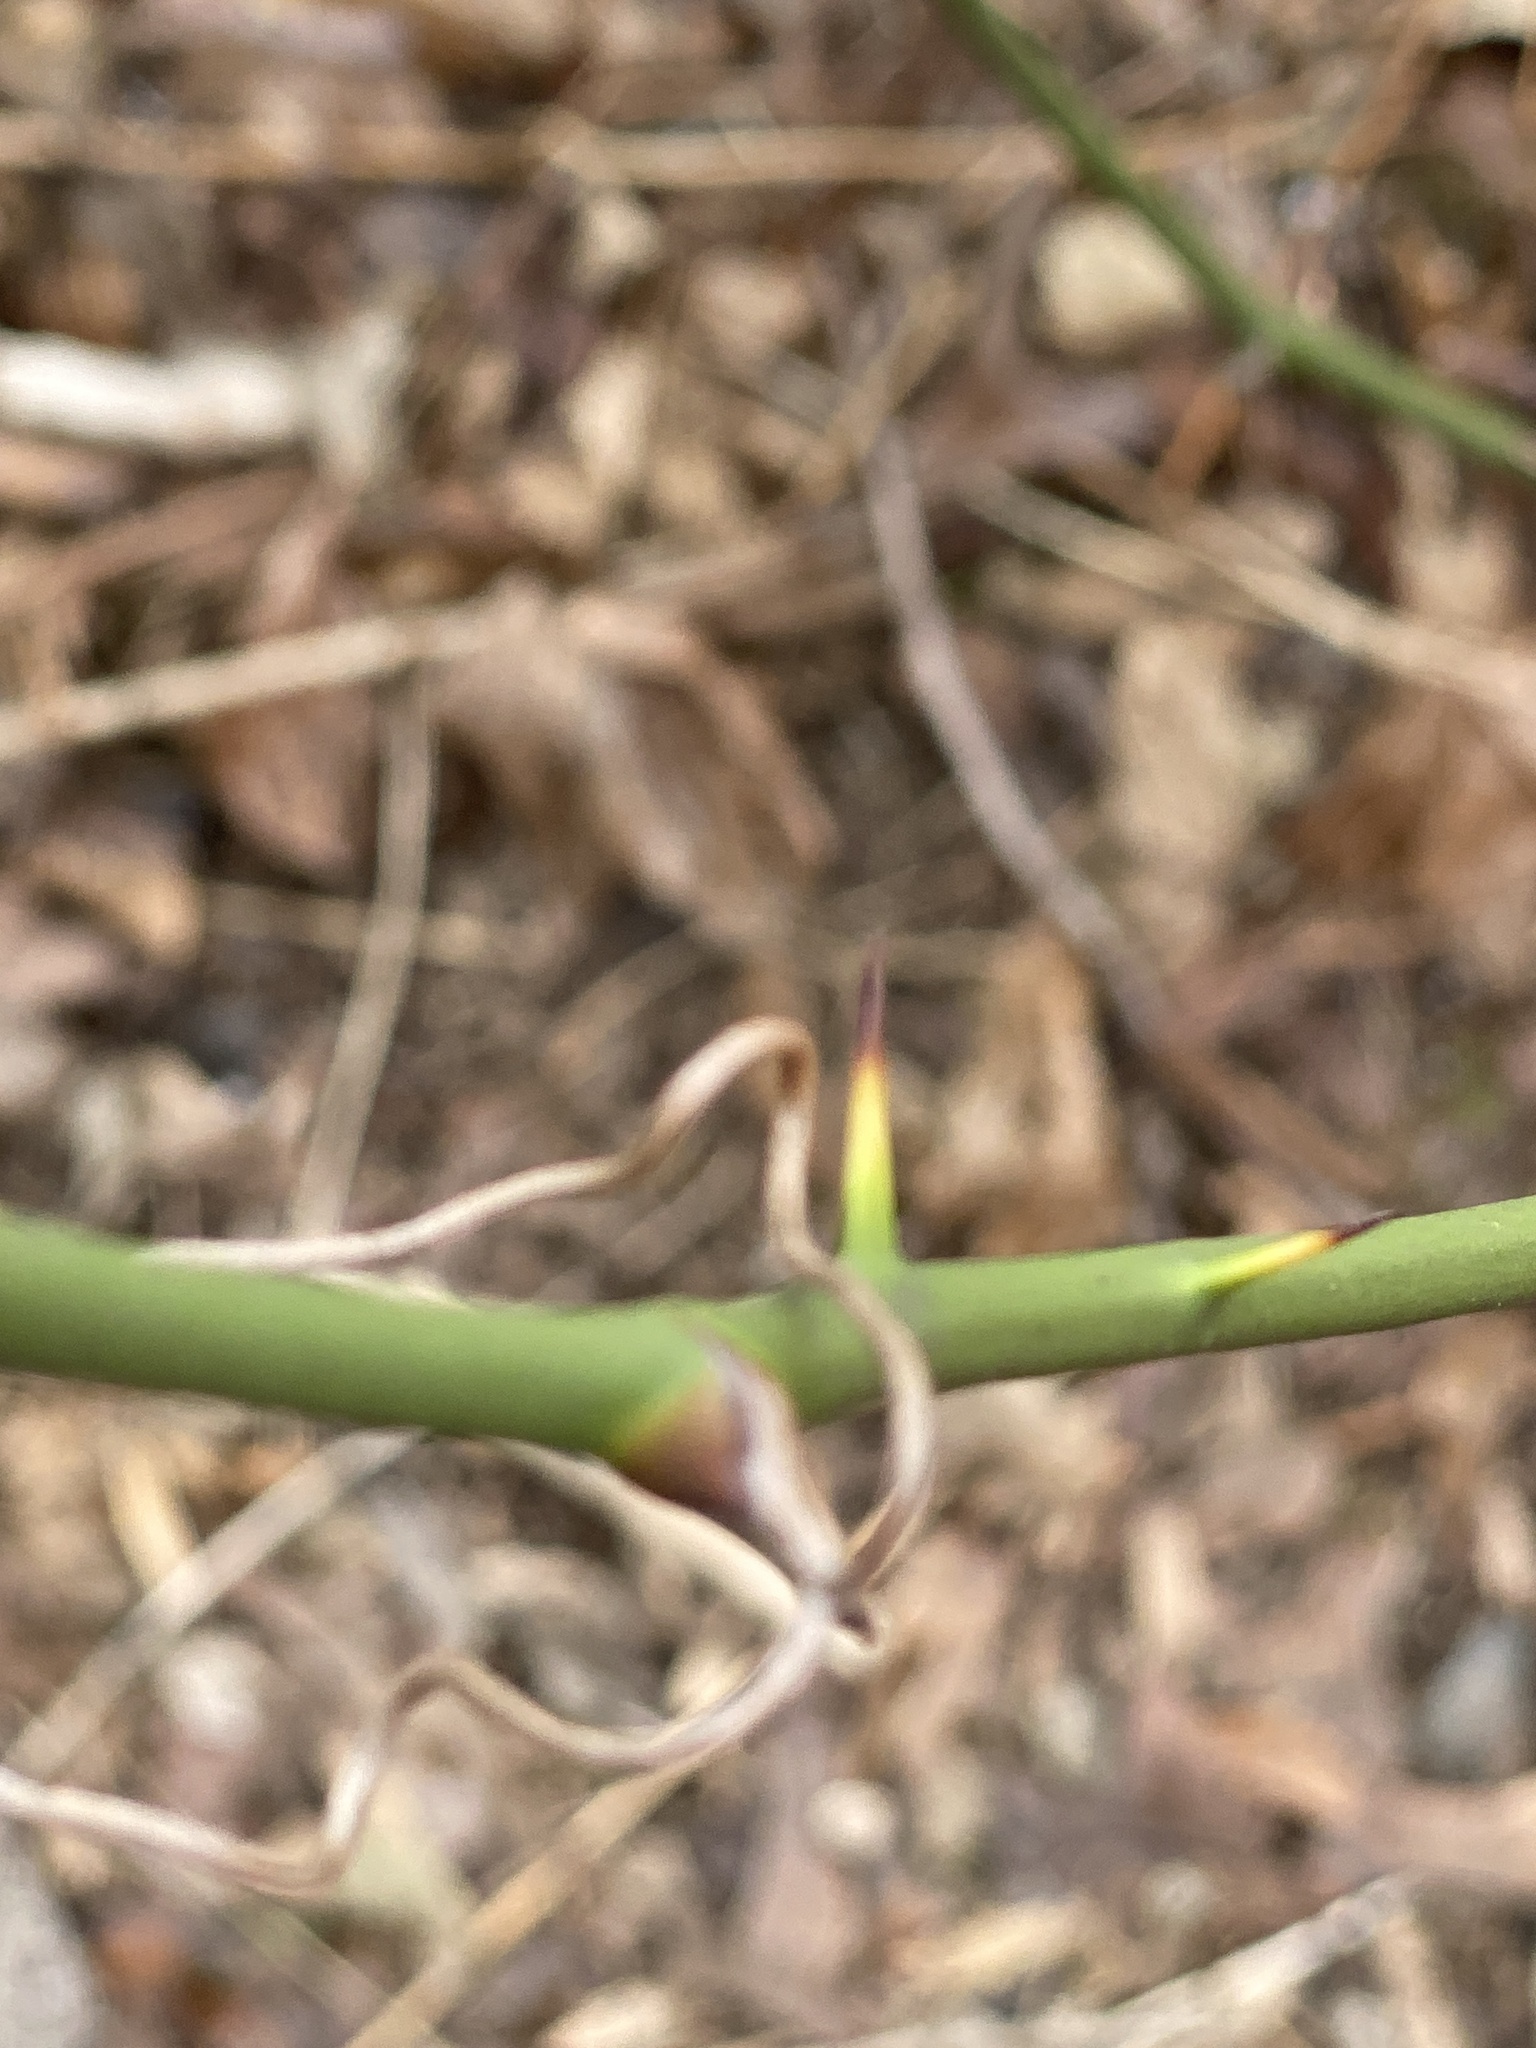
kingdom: Plantae
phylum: Tracheophyta
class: Liliopsida
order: Liliales
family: Smilacaceae
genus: Smilax
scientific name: Smilax rotundifolia
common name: Bullbriar
